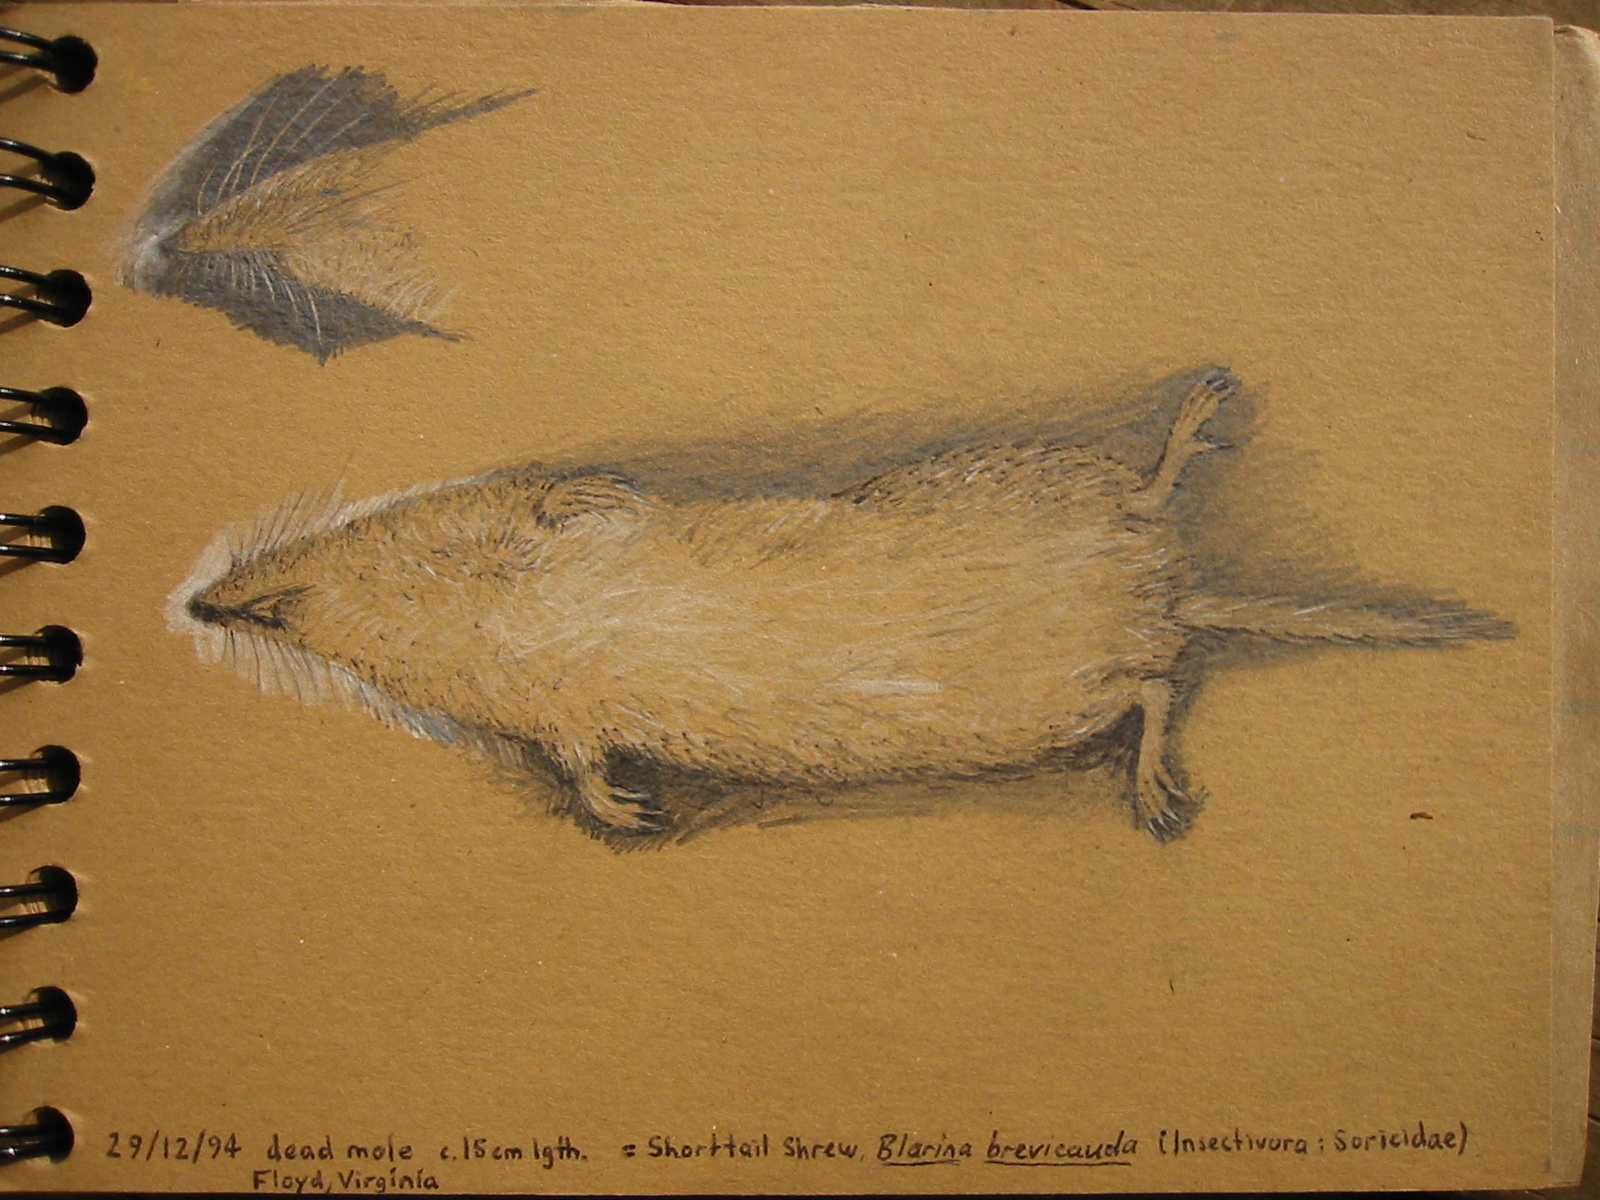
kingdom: Animalia
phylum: Chordata
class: Mammalia
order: Soricomorpha
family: Soricidae
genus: Blarina
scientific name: Blarina brevicauda
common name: Northern short-tailed shrew
